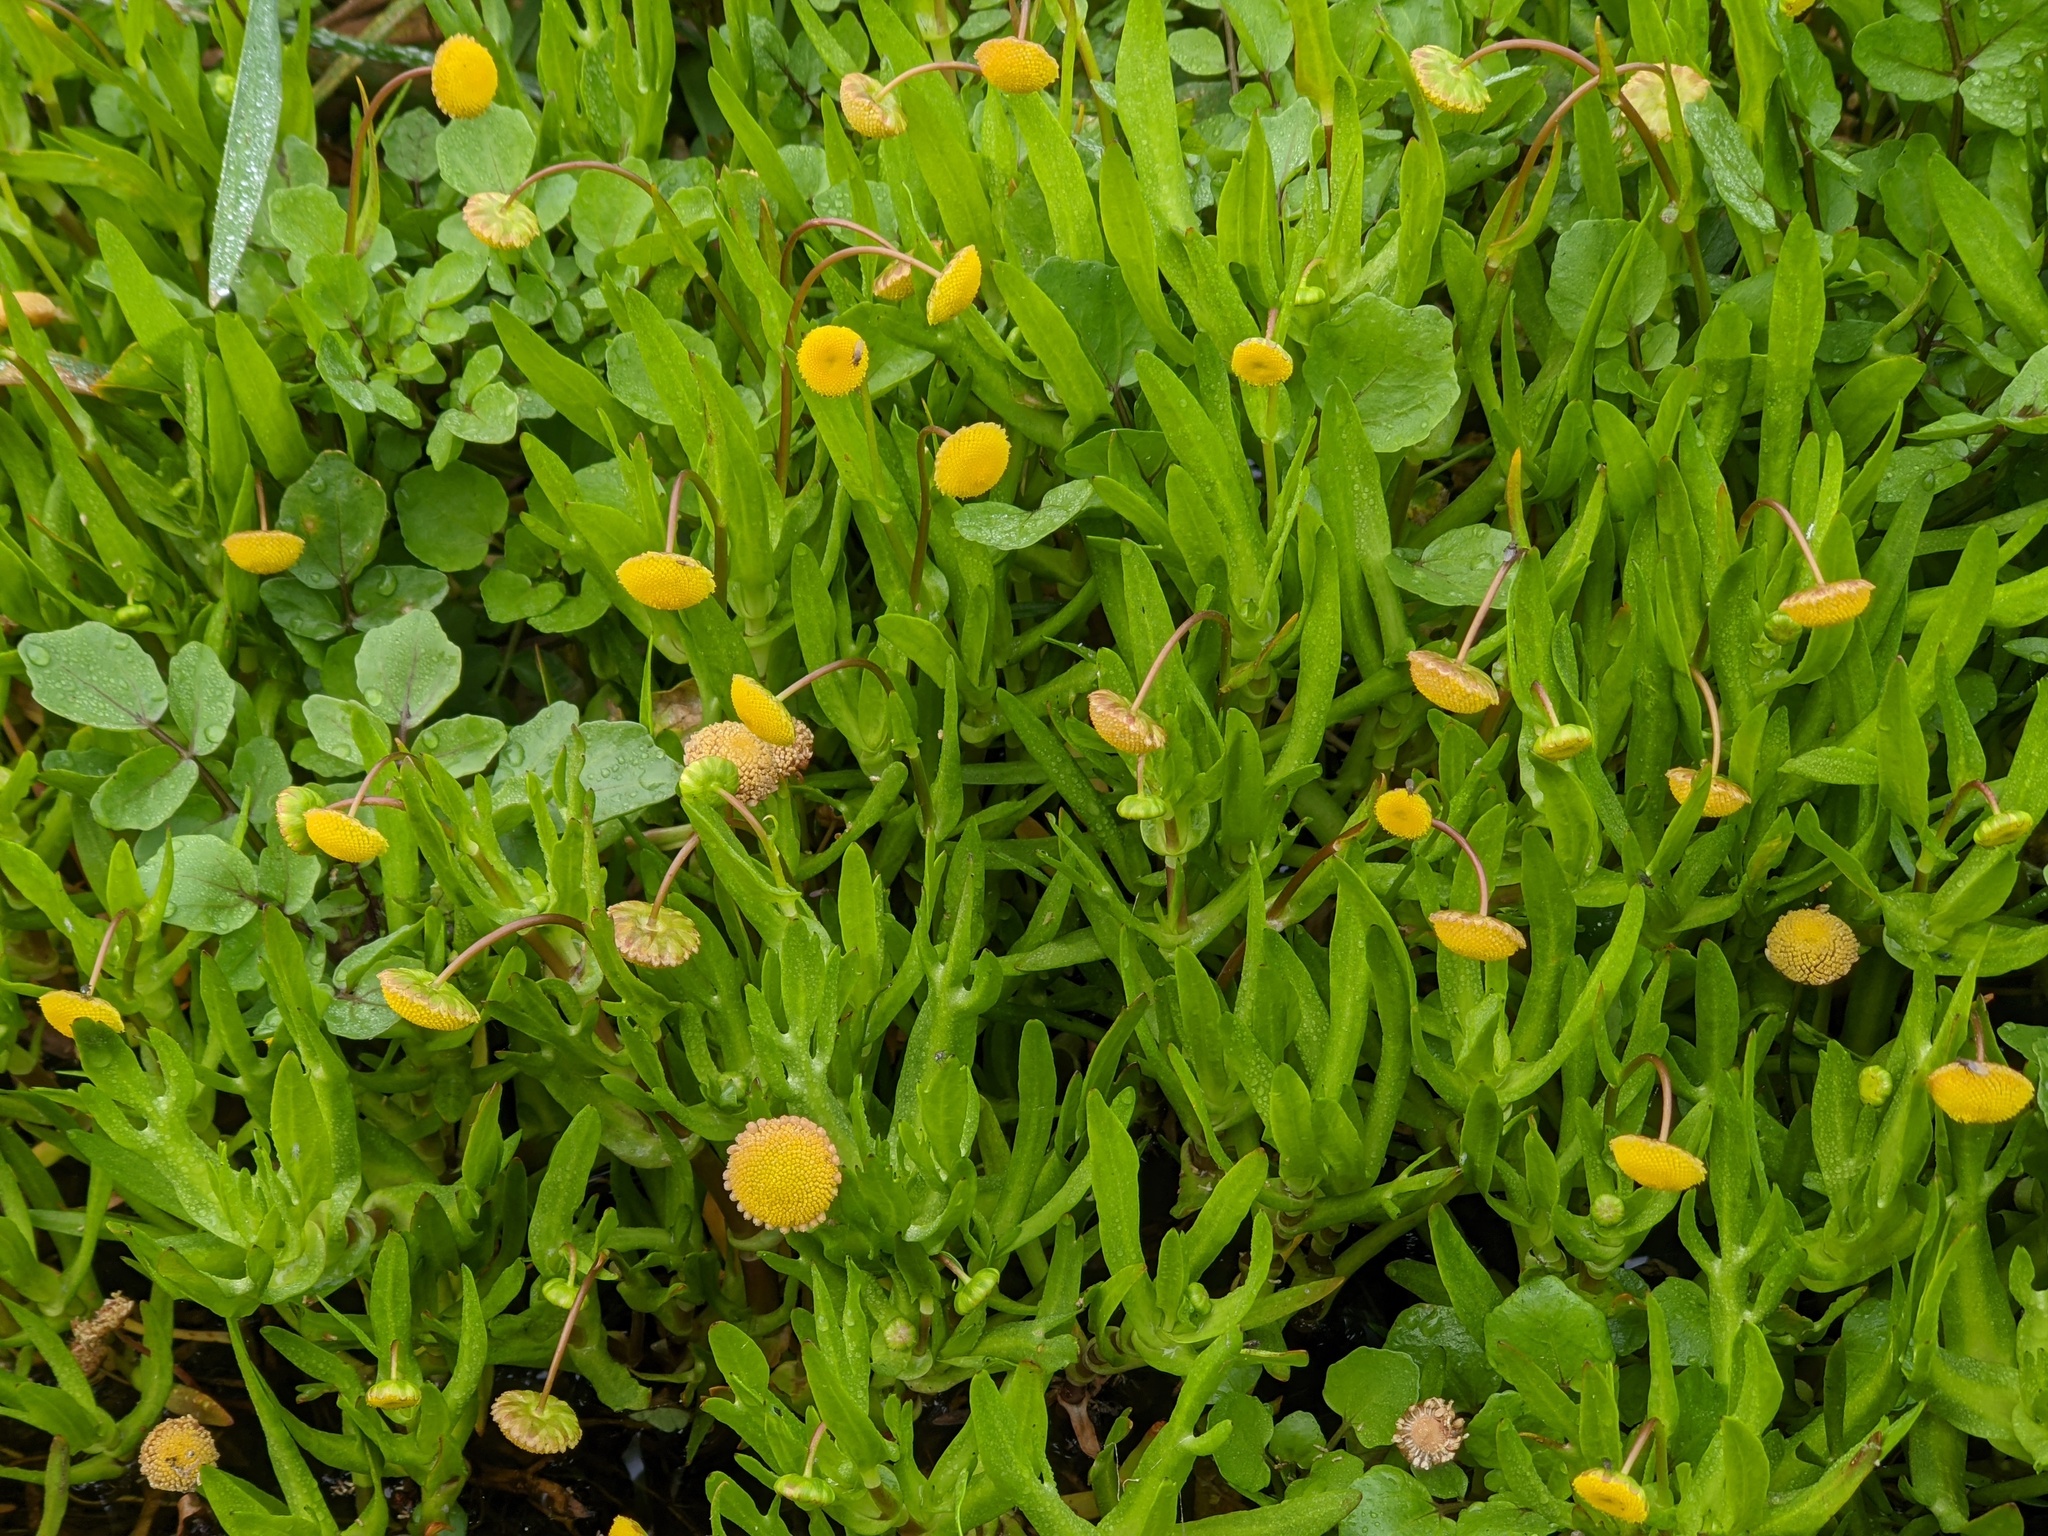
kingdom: Plantae
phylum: Tracheophyta
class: Magnoliopsida
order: Asterales
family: Asteraceae
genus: Cotula
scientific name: Cotula coronopifolia
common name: Buttonweed
